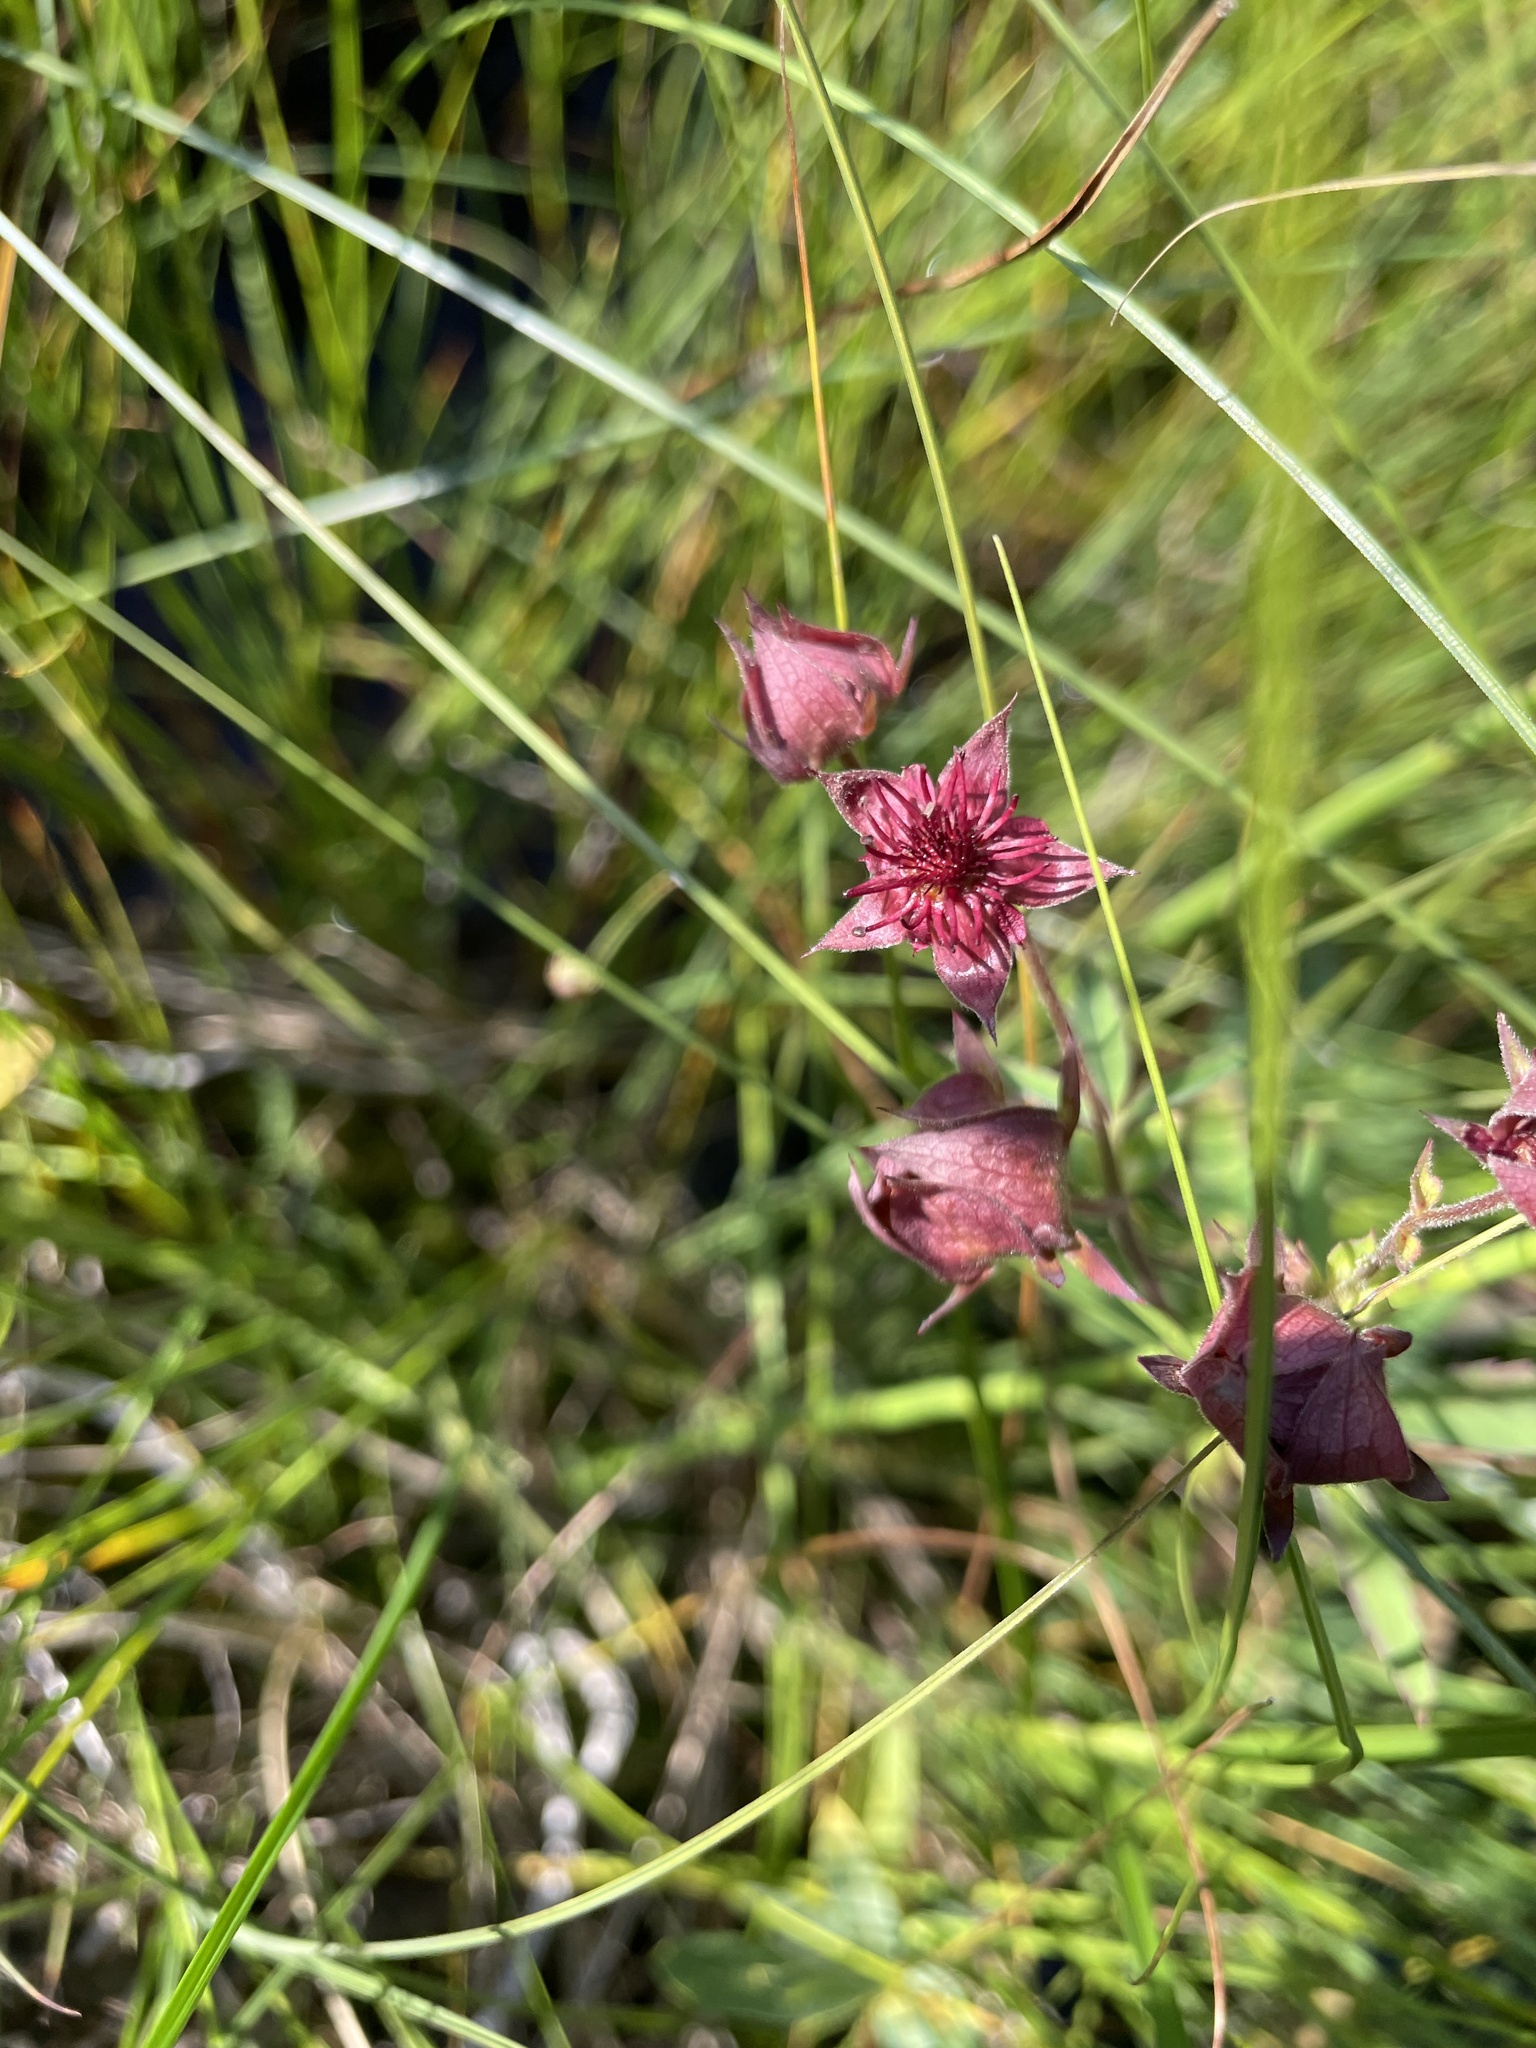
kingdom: Plantae
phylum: Tracheophyta
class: Magnoliopsida
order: Rosales
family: Rosaceae
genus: Comarum
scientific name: Comarum palustre
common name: Marsh cinquefoil
